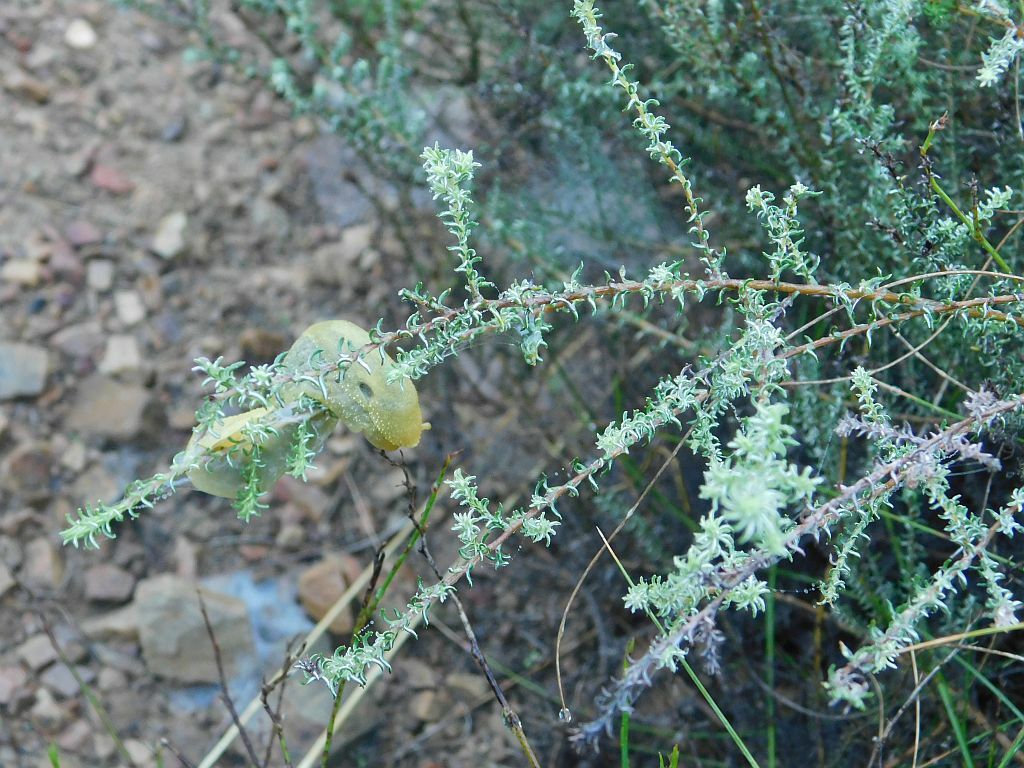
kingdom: Animalia
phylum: Mollusca
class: Gastropoda
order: Stylommatophora
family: Oopeltidae
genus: Oopelta
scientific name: Oopelta flavescens
